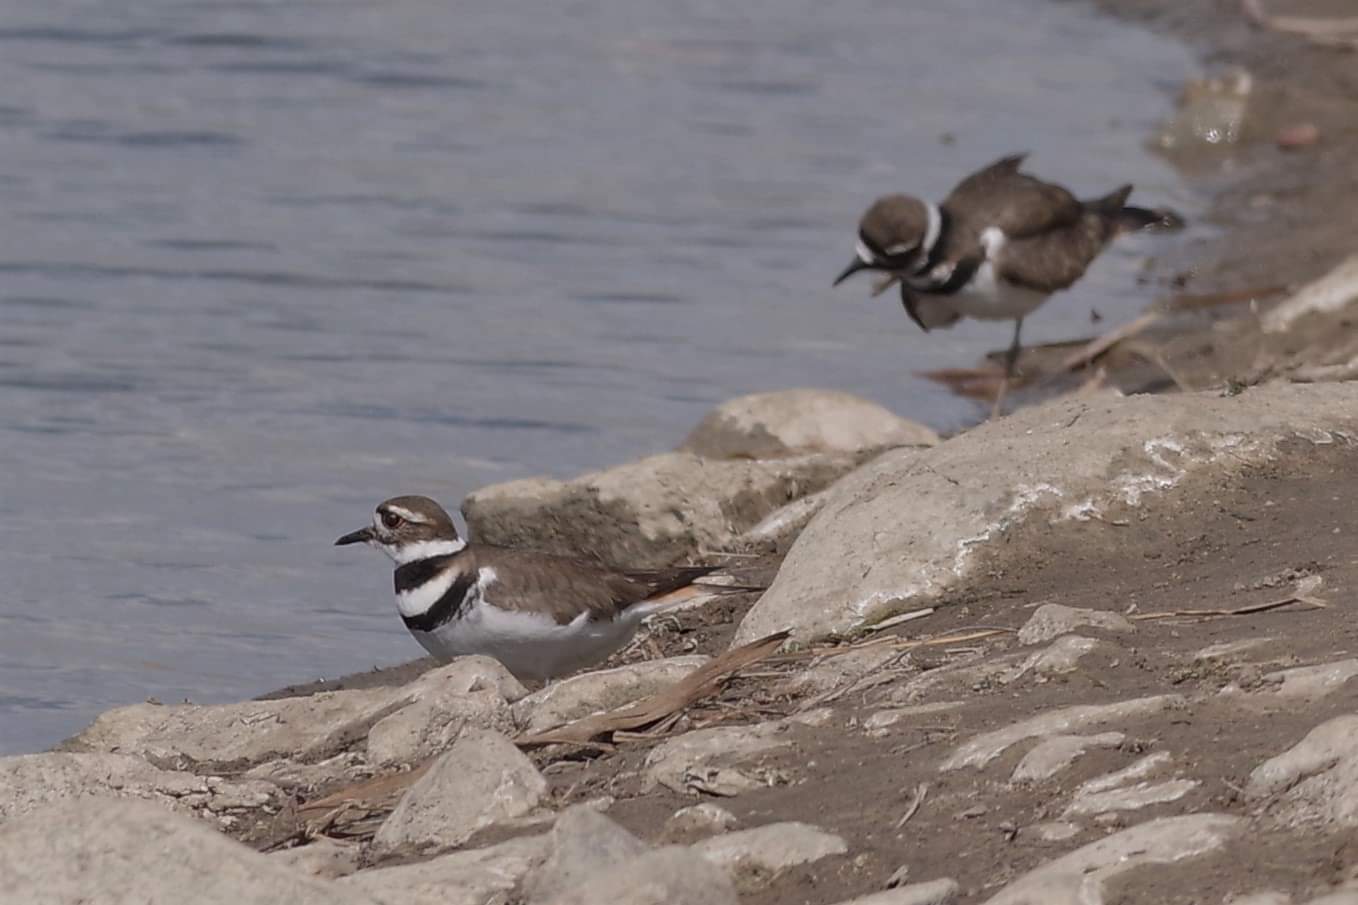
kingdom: Animalia
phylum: Chordata
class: Aves
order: Charadriiformes
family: Charadriidae
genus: Charadrius
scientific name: Charadrius vociferus
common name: Killdeer
